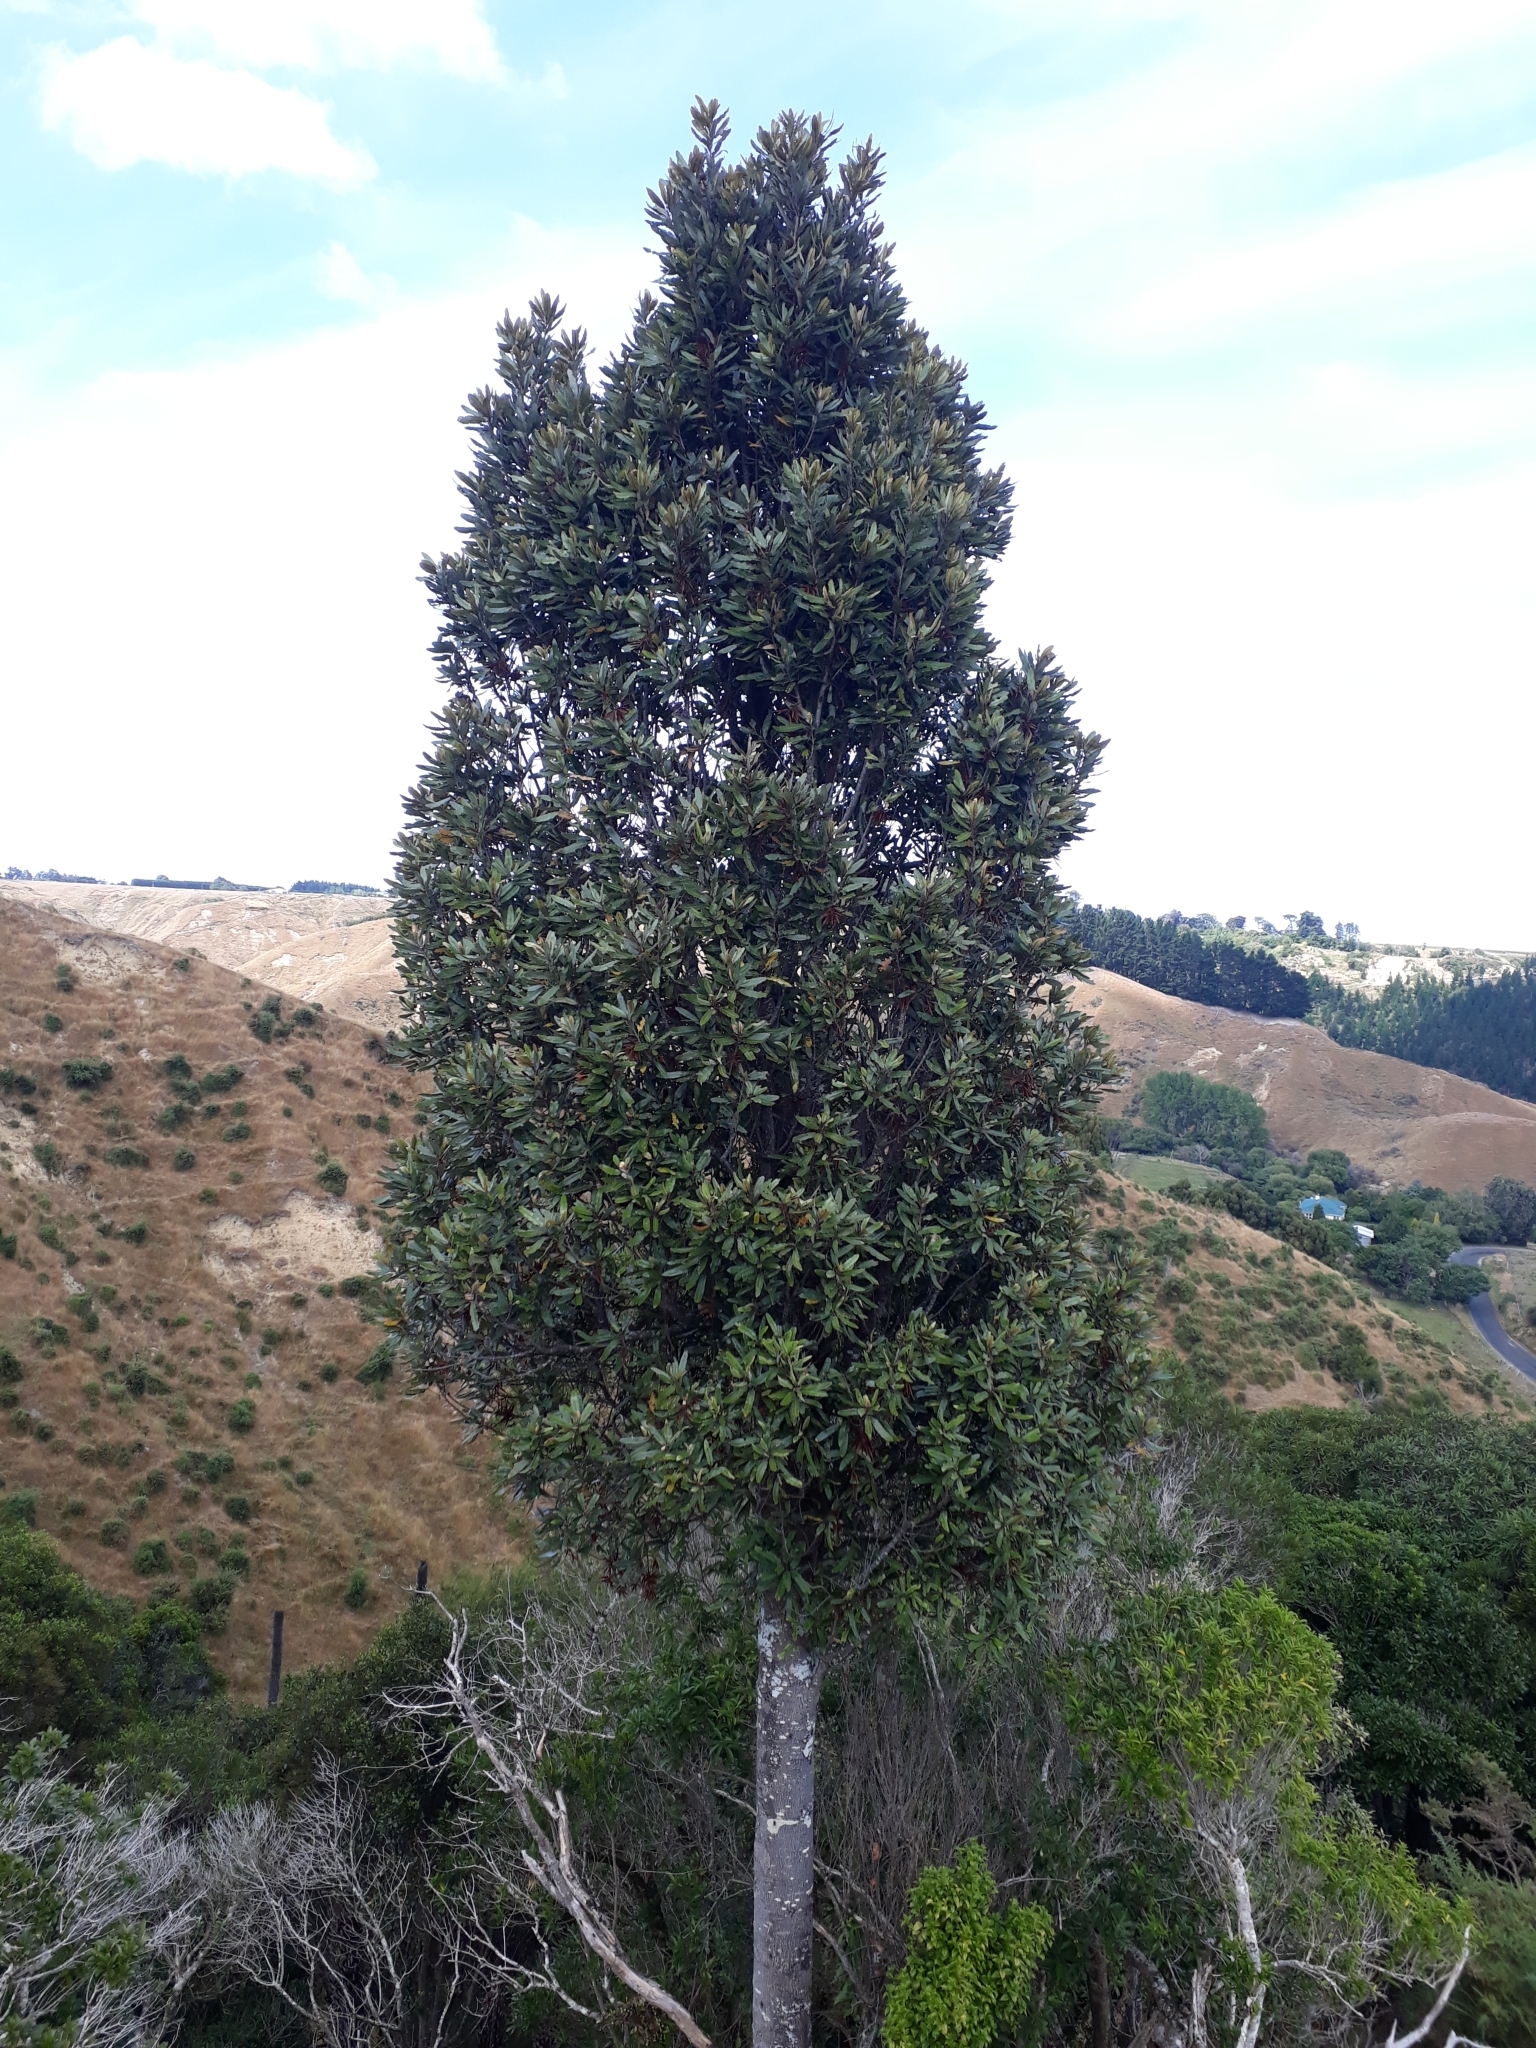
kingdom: Plantae
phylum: Tracheophyta
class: Magnoliopsida
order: Proteales
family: Proteaceae
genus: Knightia
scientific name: Knightia excelsa
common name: New zealand-honeysuckle
